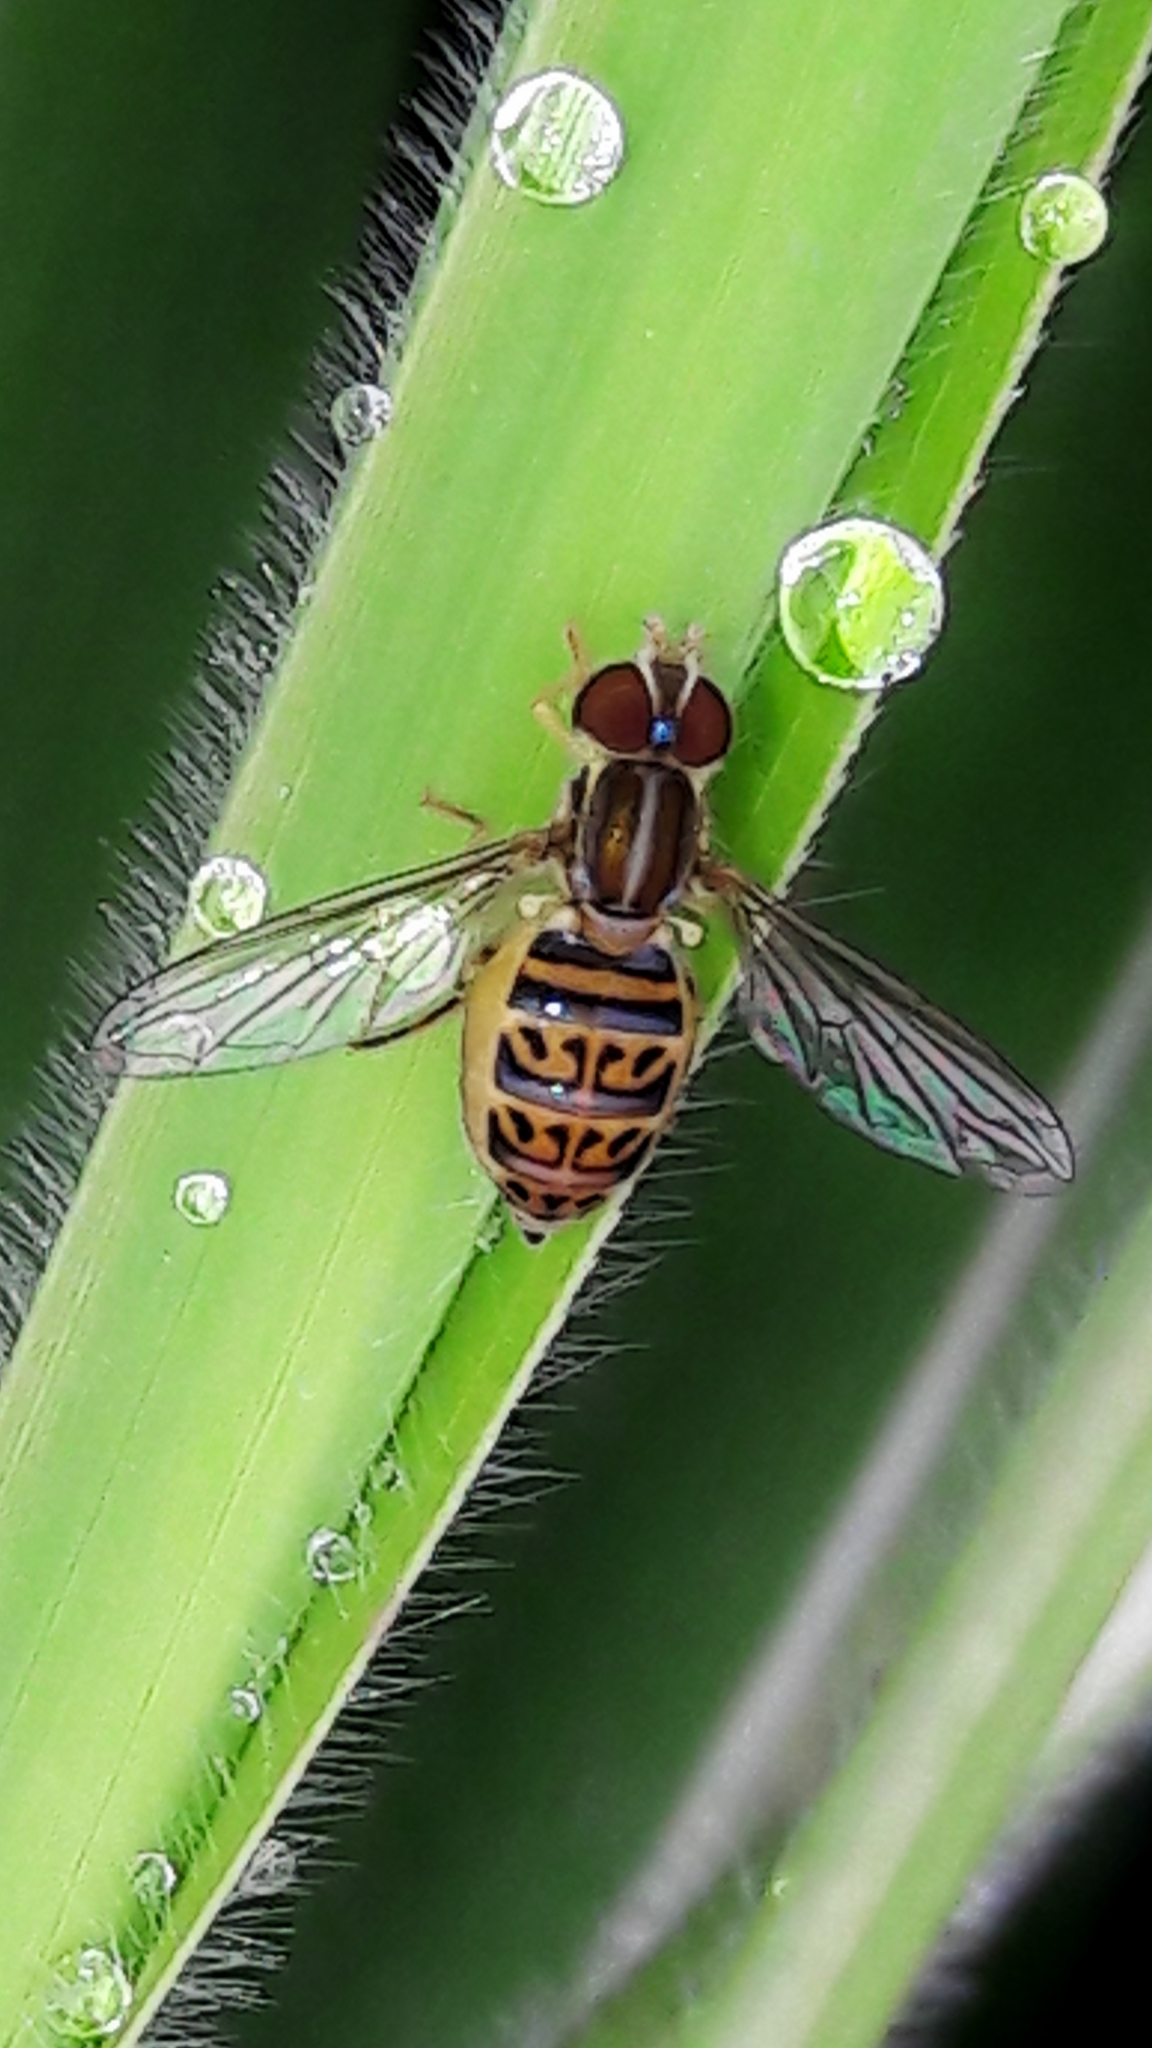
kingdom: Animalia
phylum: Arthropoda
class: Insecta
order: Diptera
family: Syrphidae
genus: Toxomerus
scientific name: Toxomerus pulchellus
